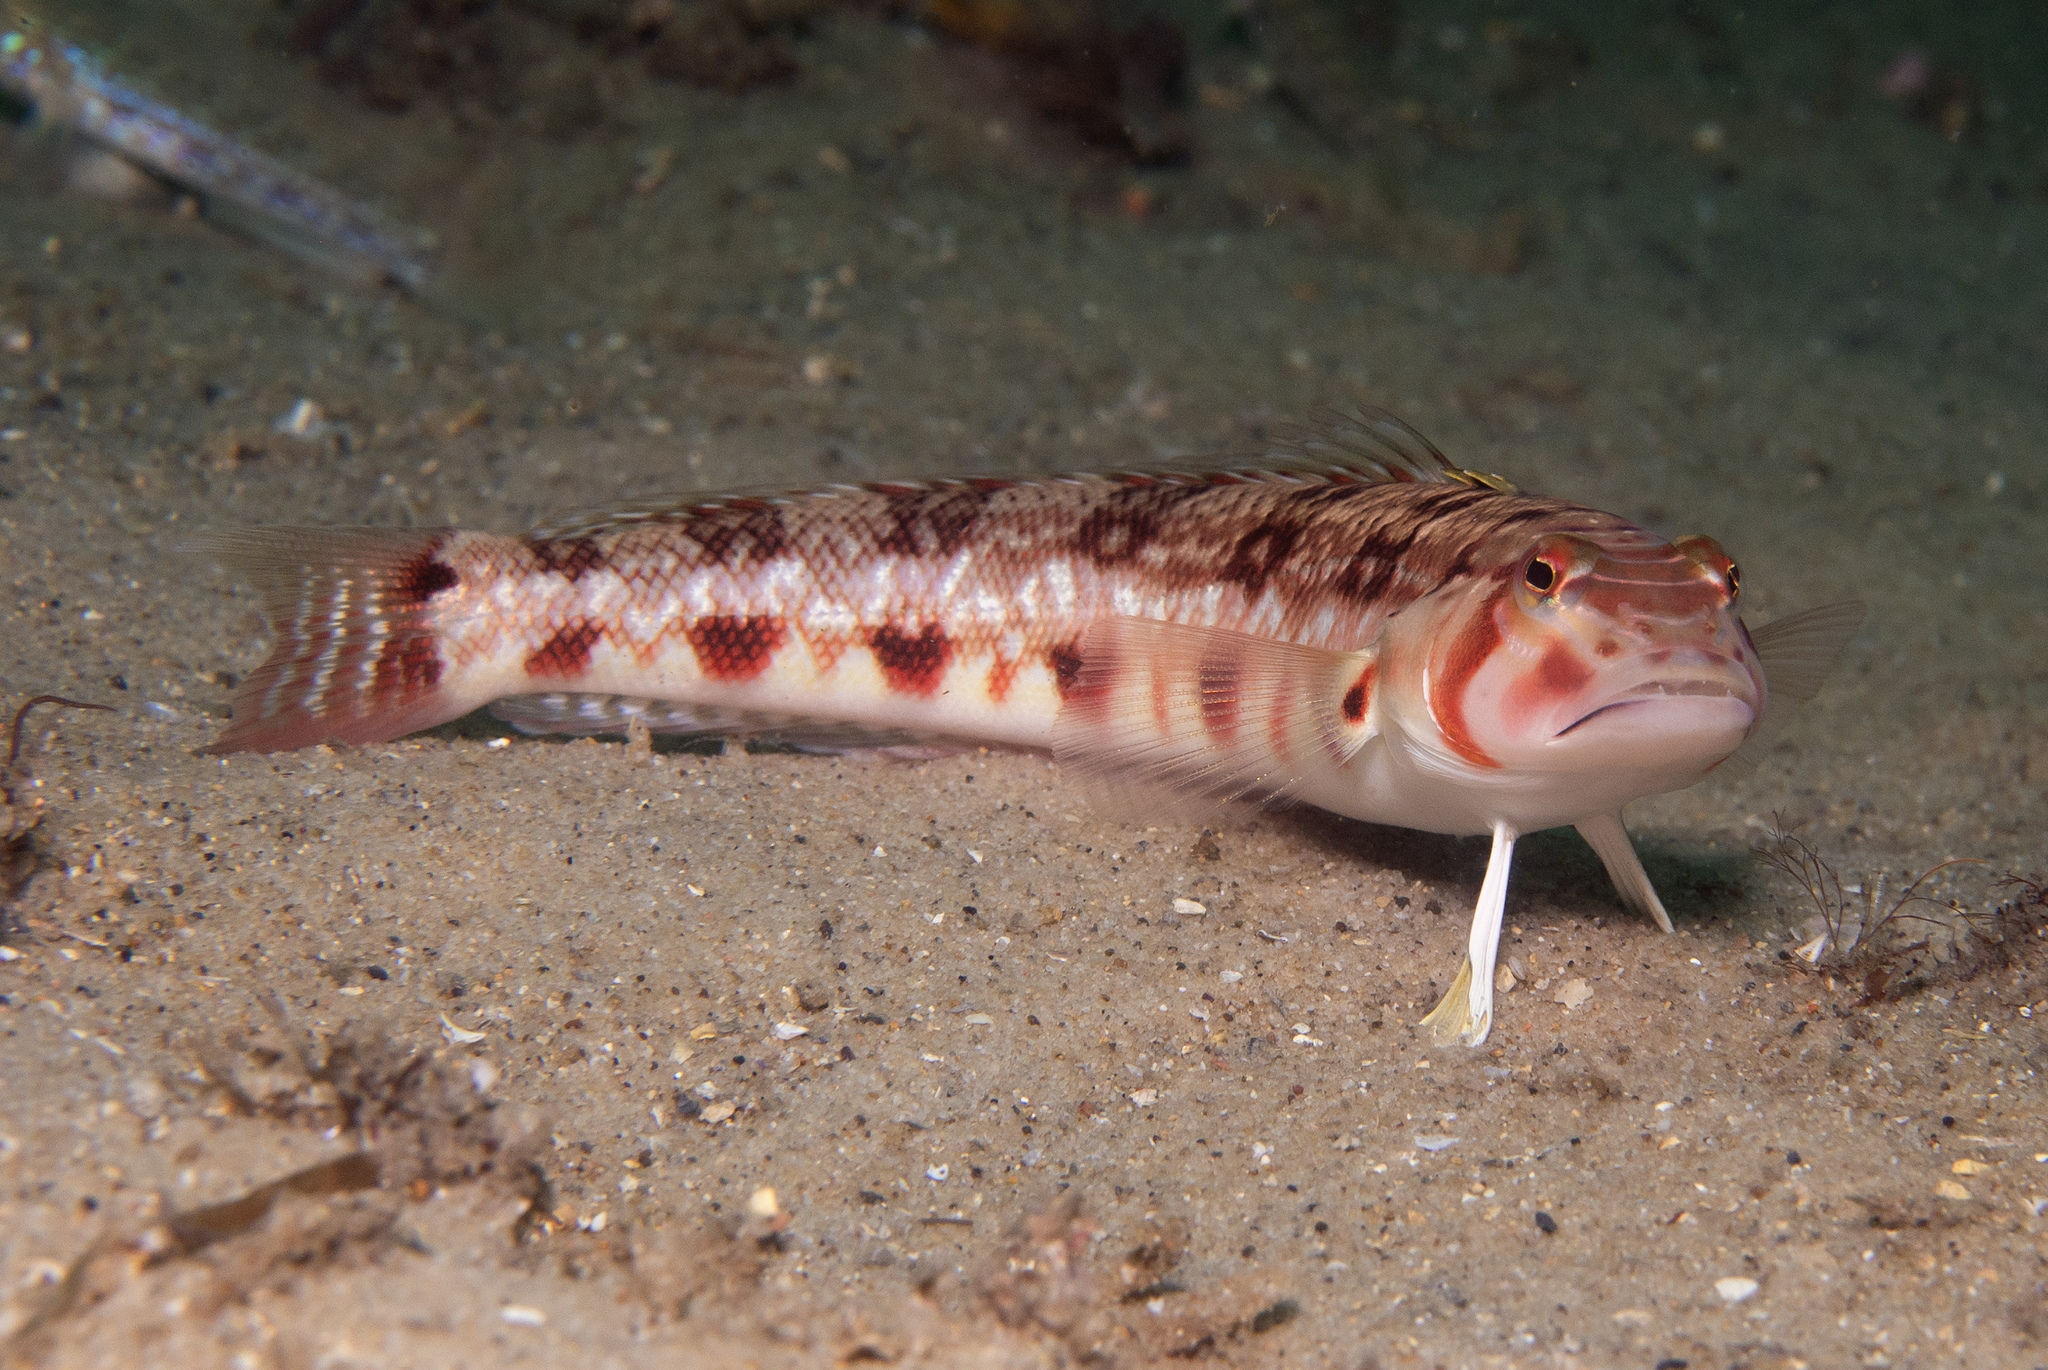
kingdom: Animalia
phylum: Chordata
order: Perciformes
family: Pinguipedidae
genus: Parapercis
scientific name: Parapercis nebulosa
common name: Barred sandperch
